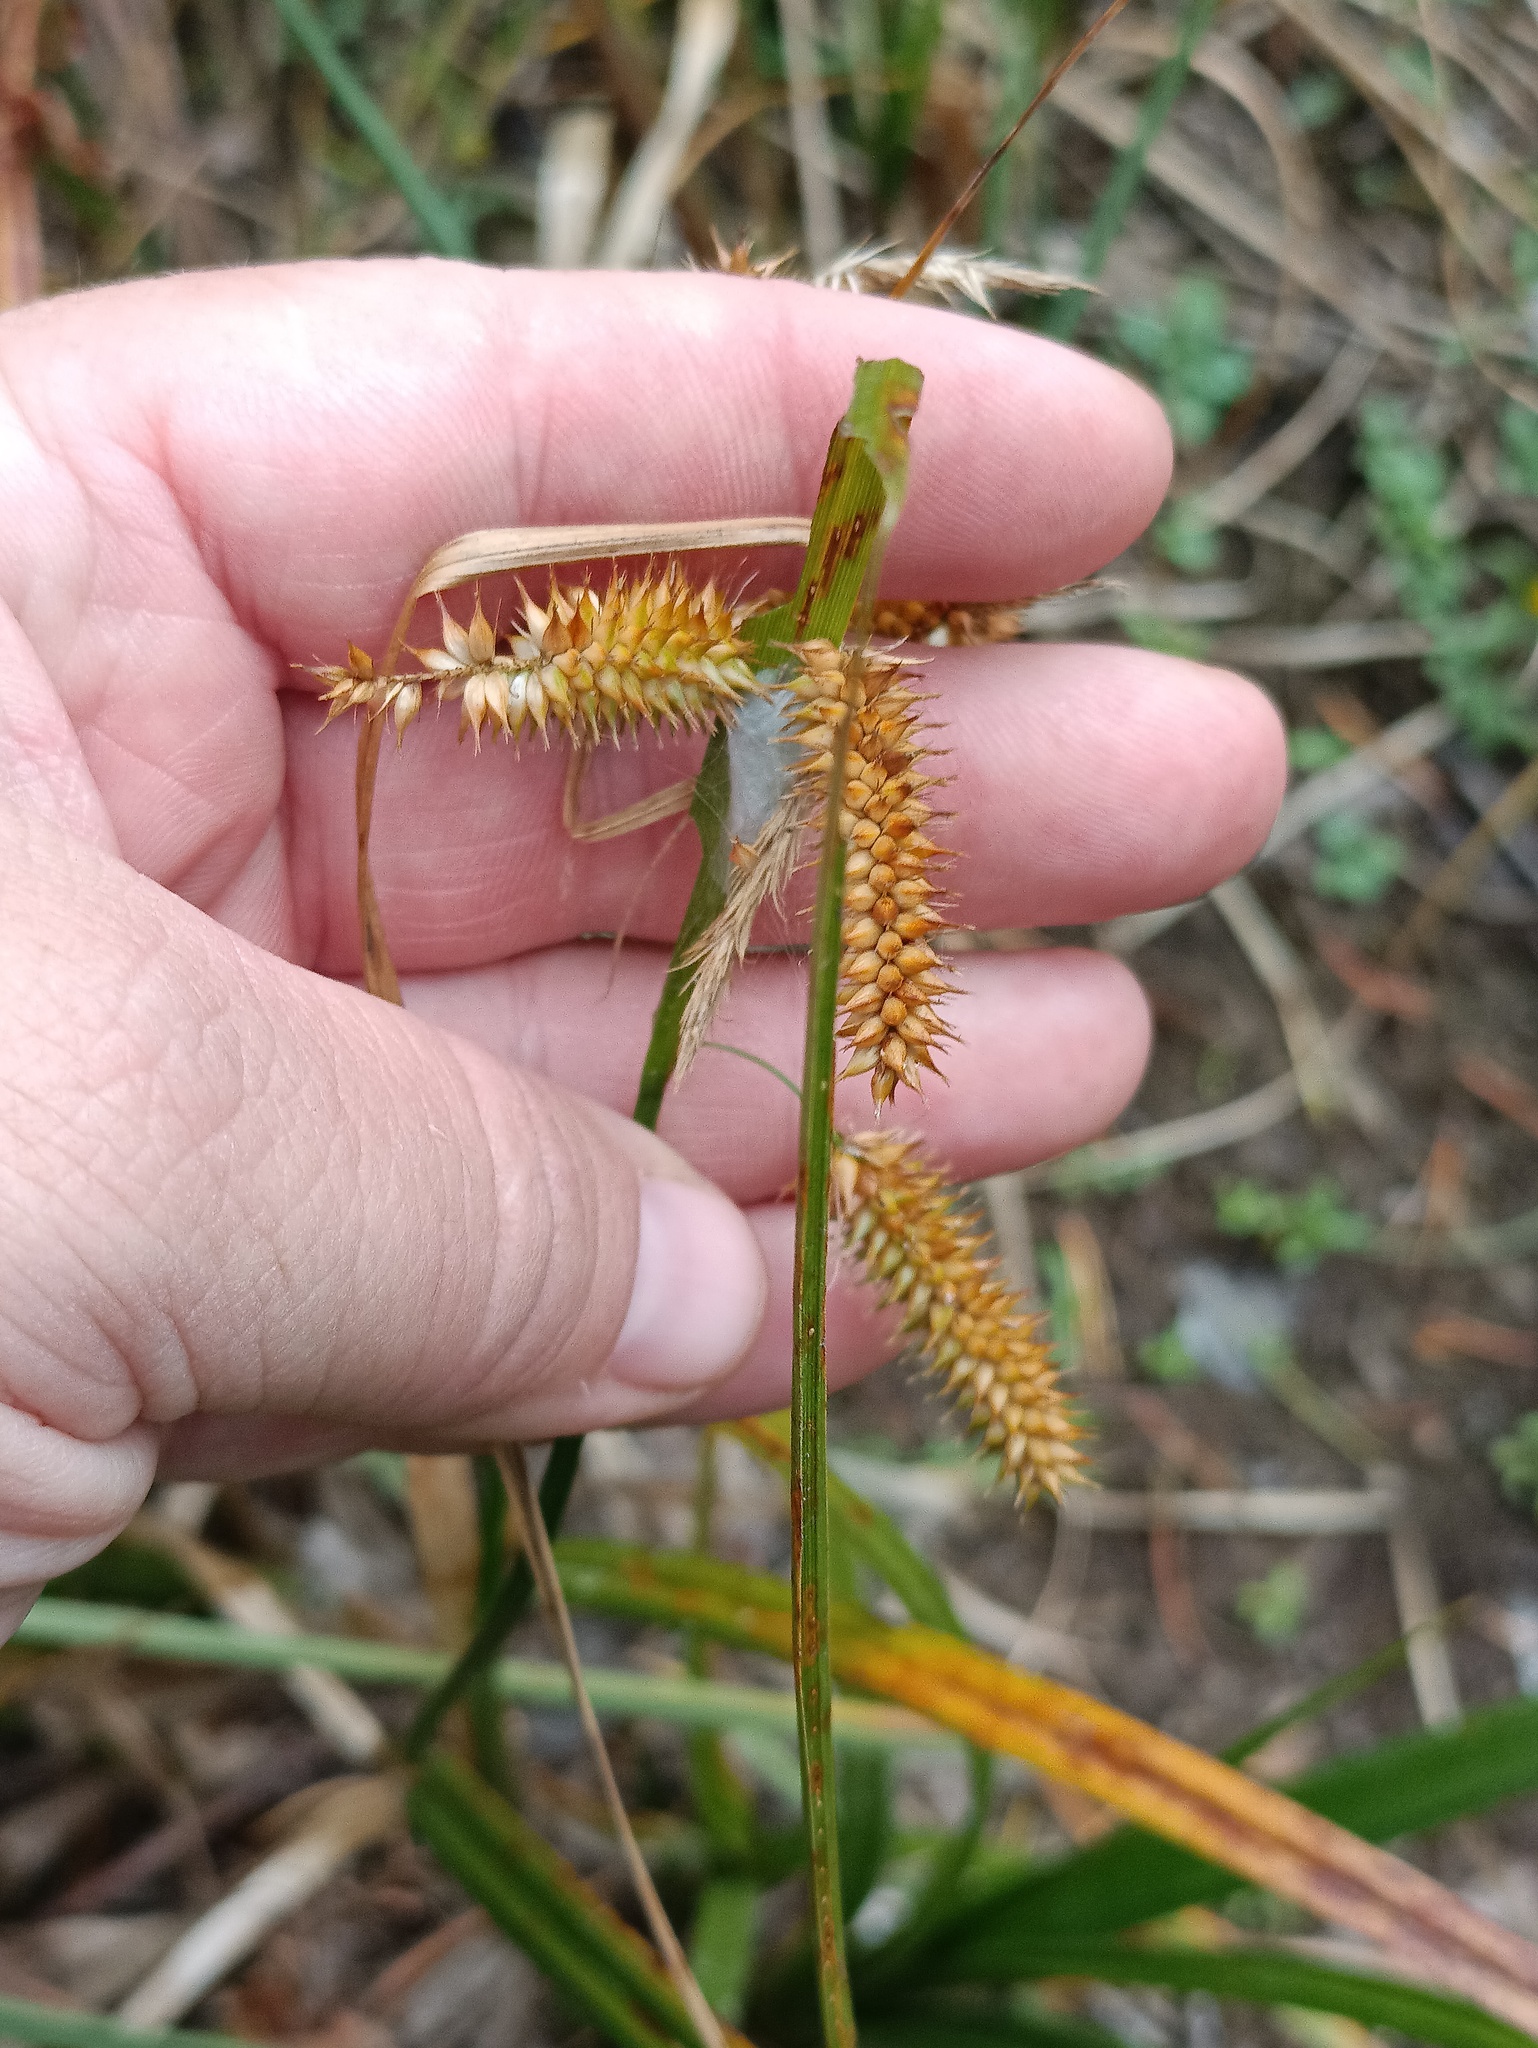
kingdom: Plantae
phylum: Tracheophyta
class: Liliopsida
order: Poales
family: Cyperaceae
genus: Carex
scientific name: Carex pseudocyperus
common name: Cyperus sedge
